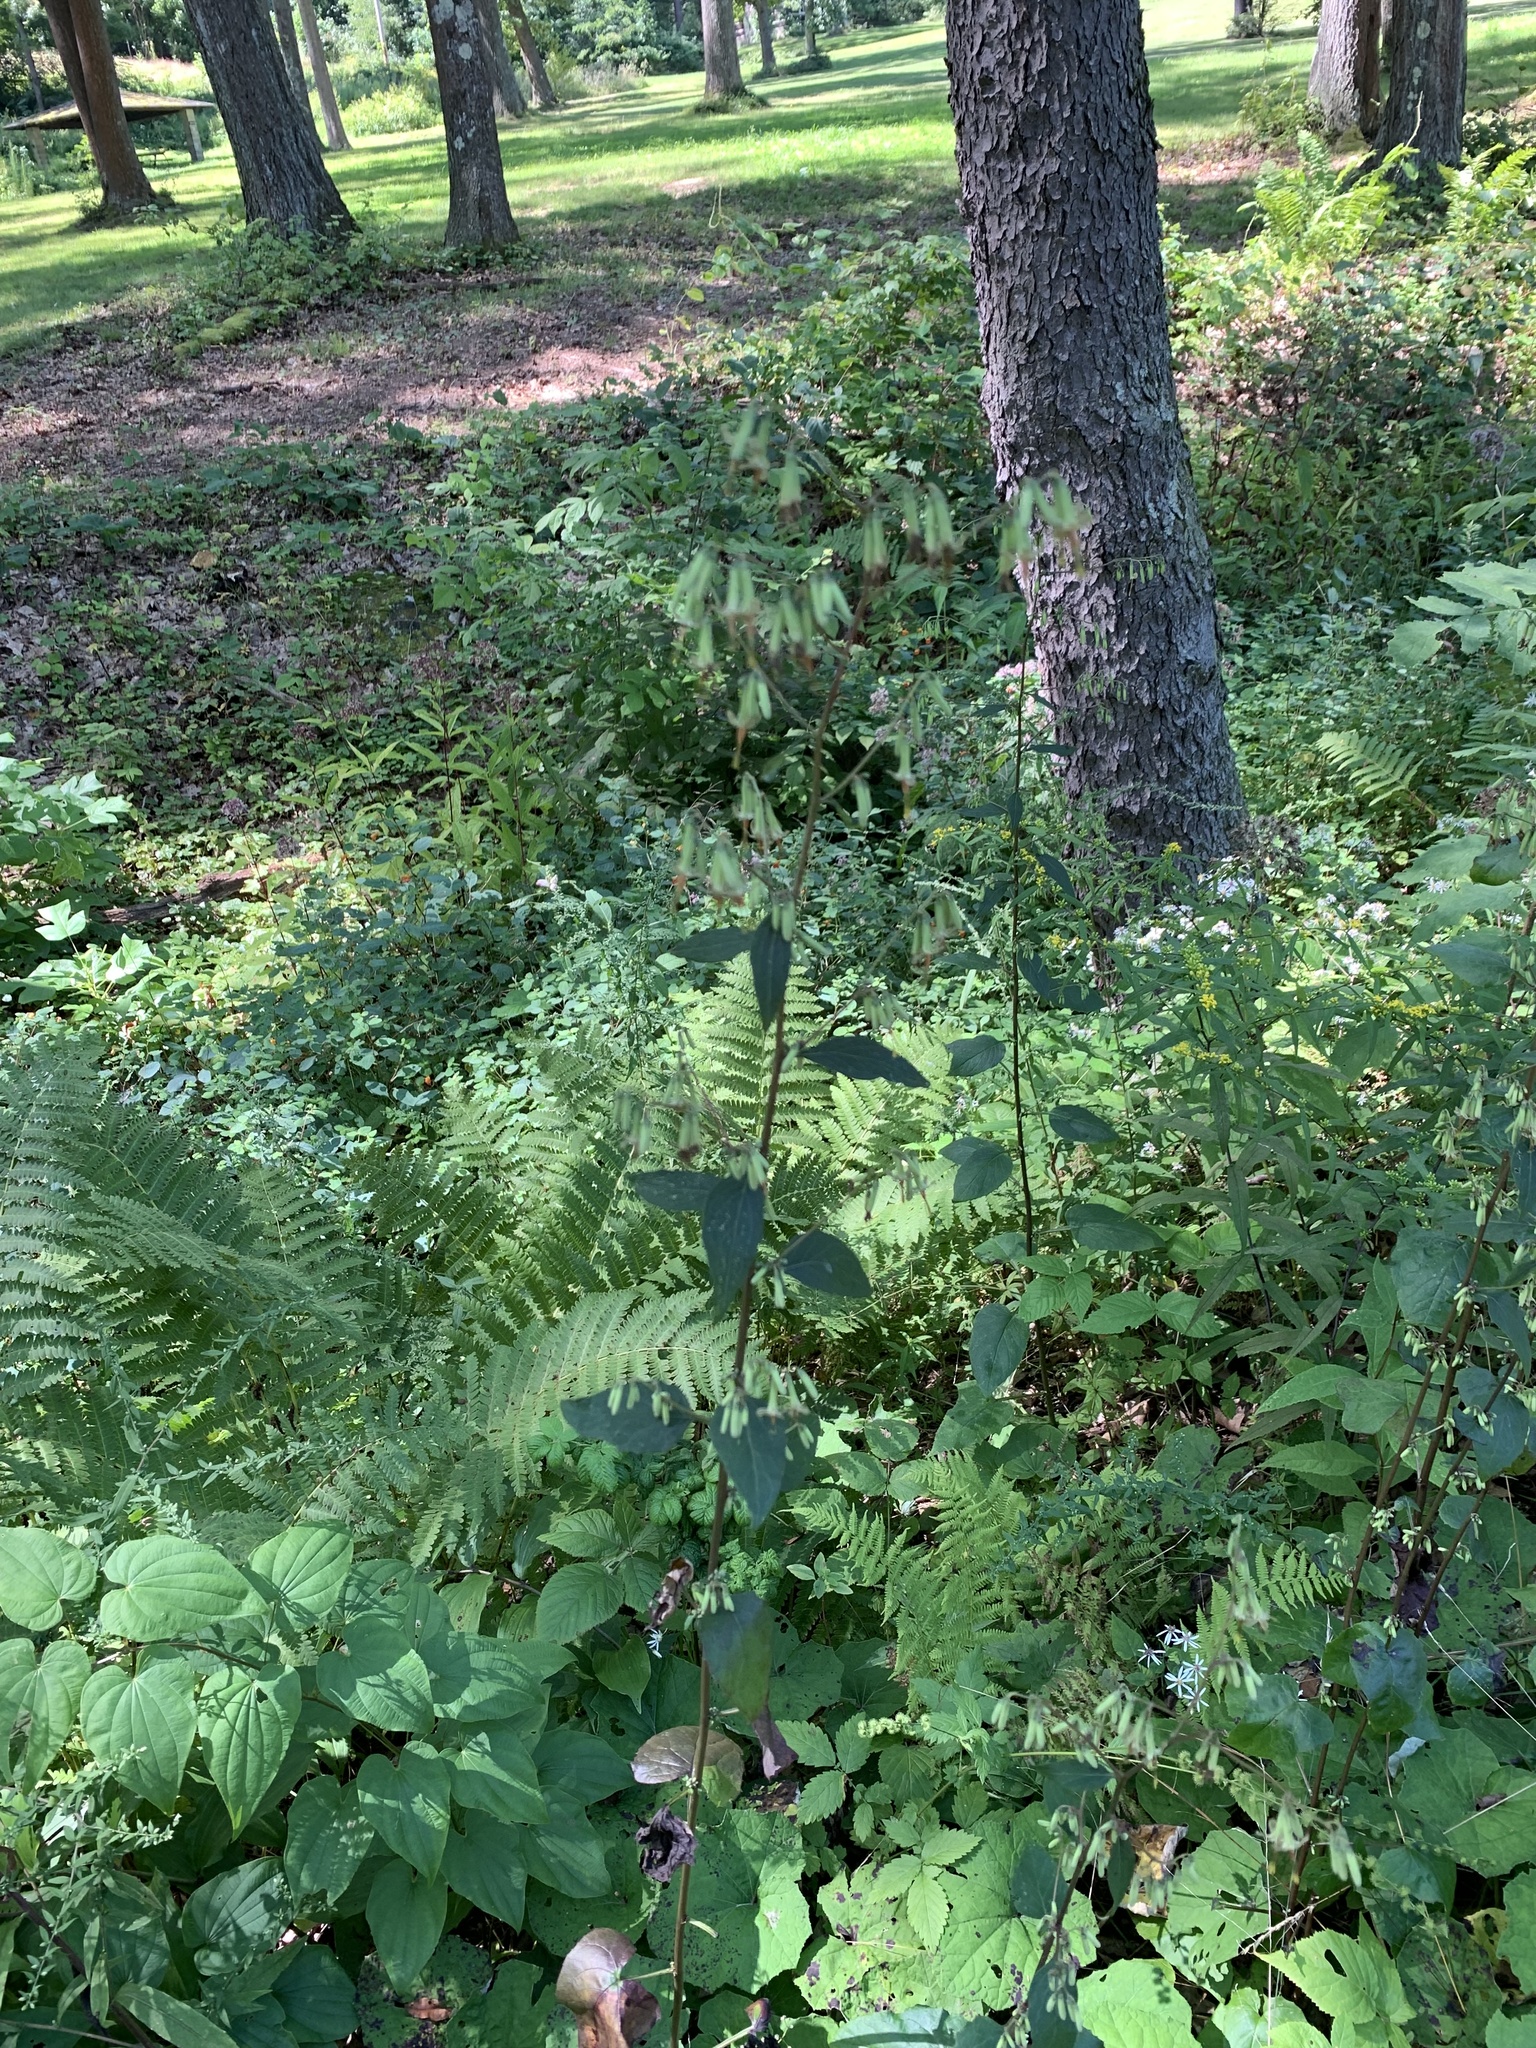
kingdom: Plantae
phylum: Tracheophyta
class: Magnoliopsida
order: Asterales
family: Asteraceae
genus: Nabalus
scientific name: Nabalus altissima
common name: Tall rattlesnakeroot
